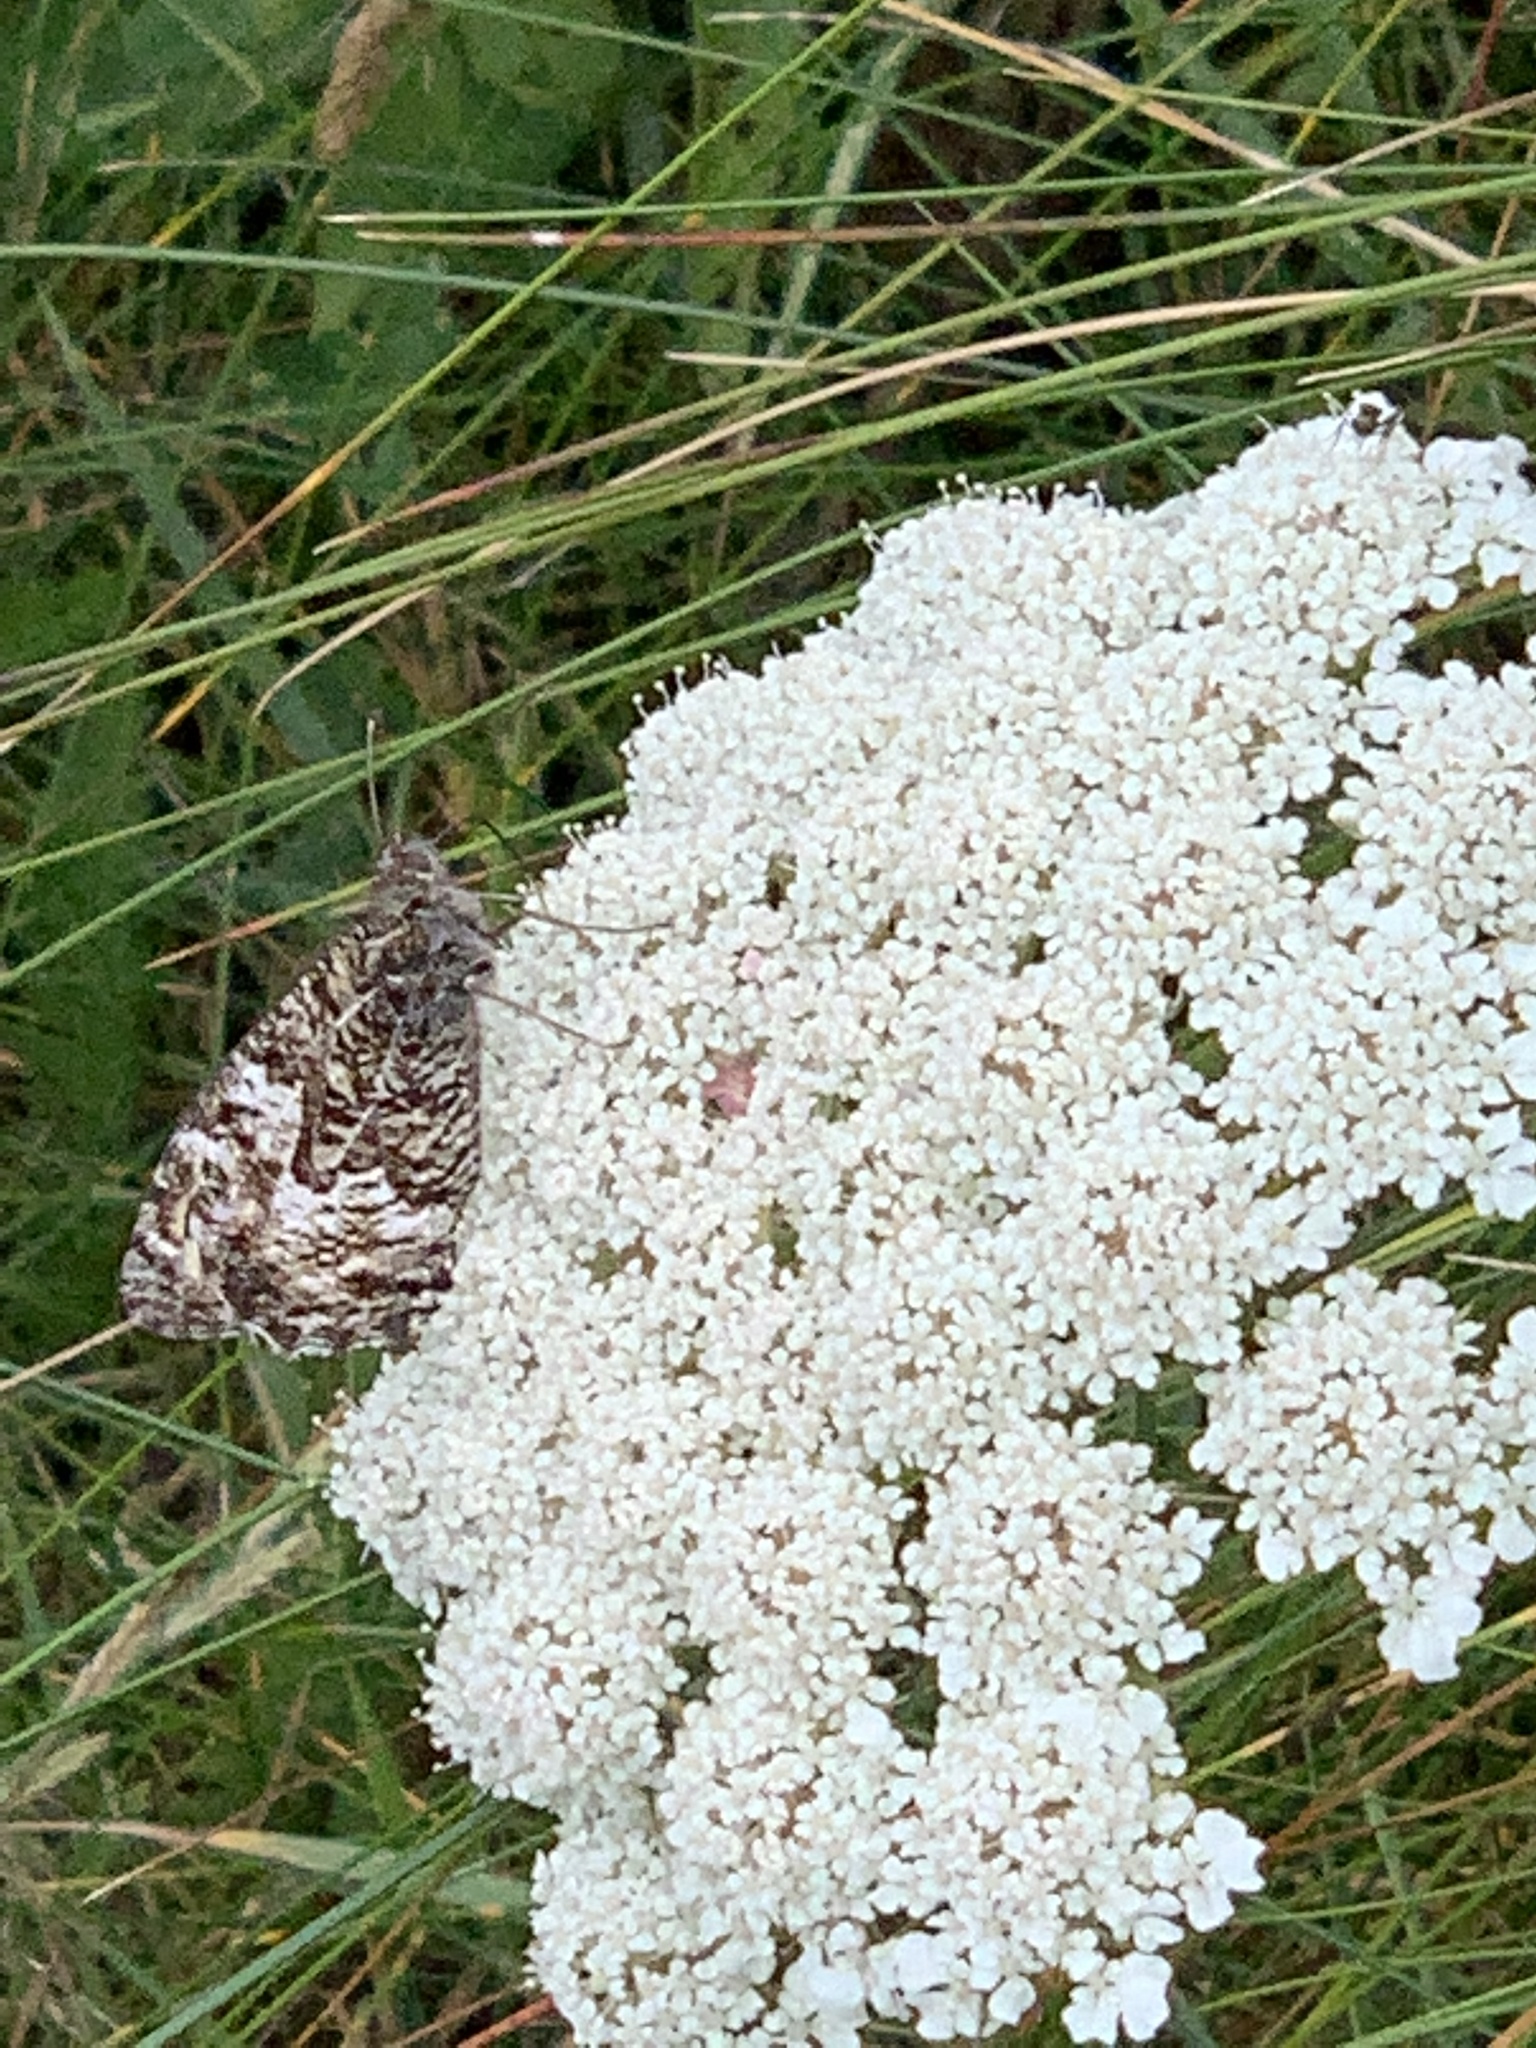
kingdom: Animalia
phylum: Arthropoda
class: Insecta
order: Lepidoptera
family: Nymphalidae
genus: Hipparchia
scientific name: Hipparchia semele
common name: Grayling
